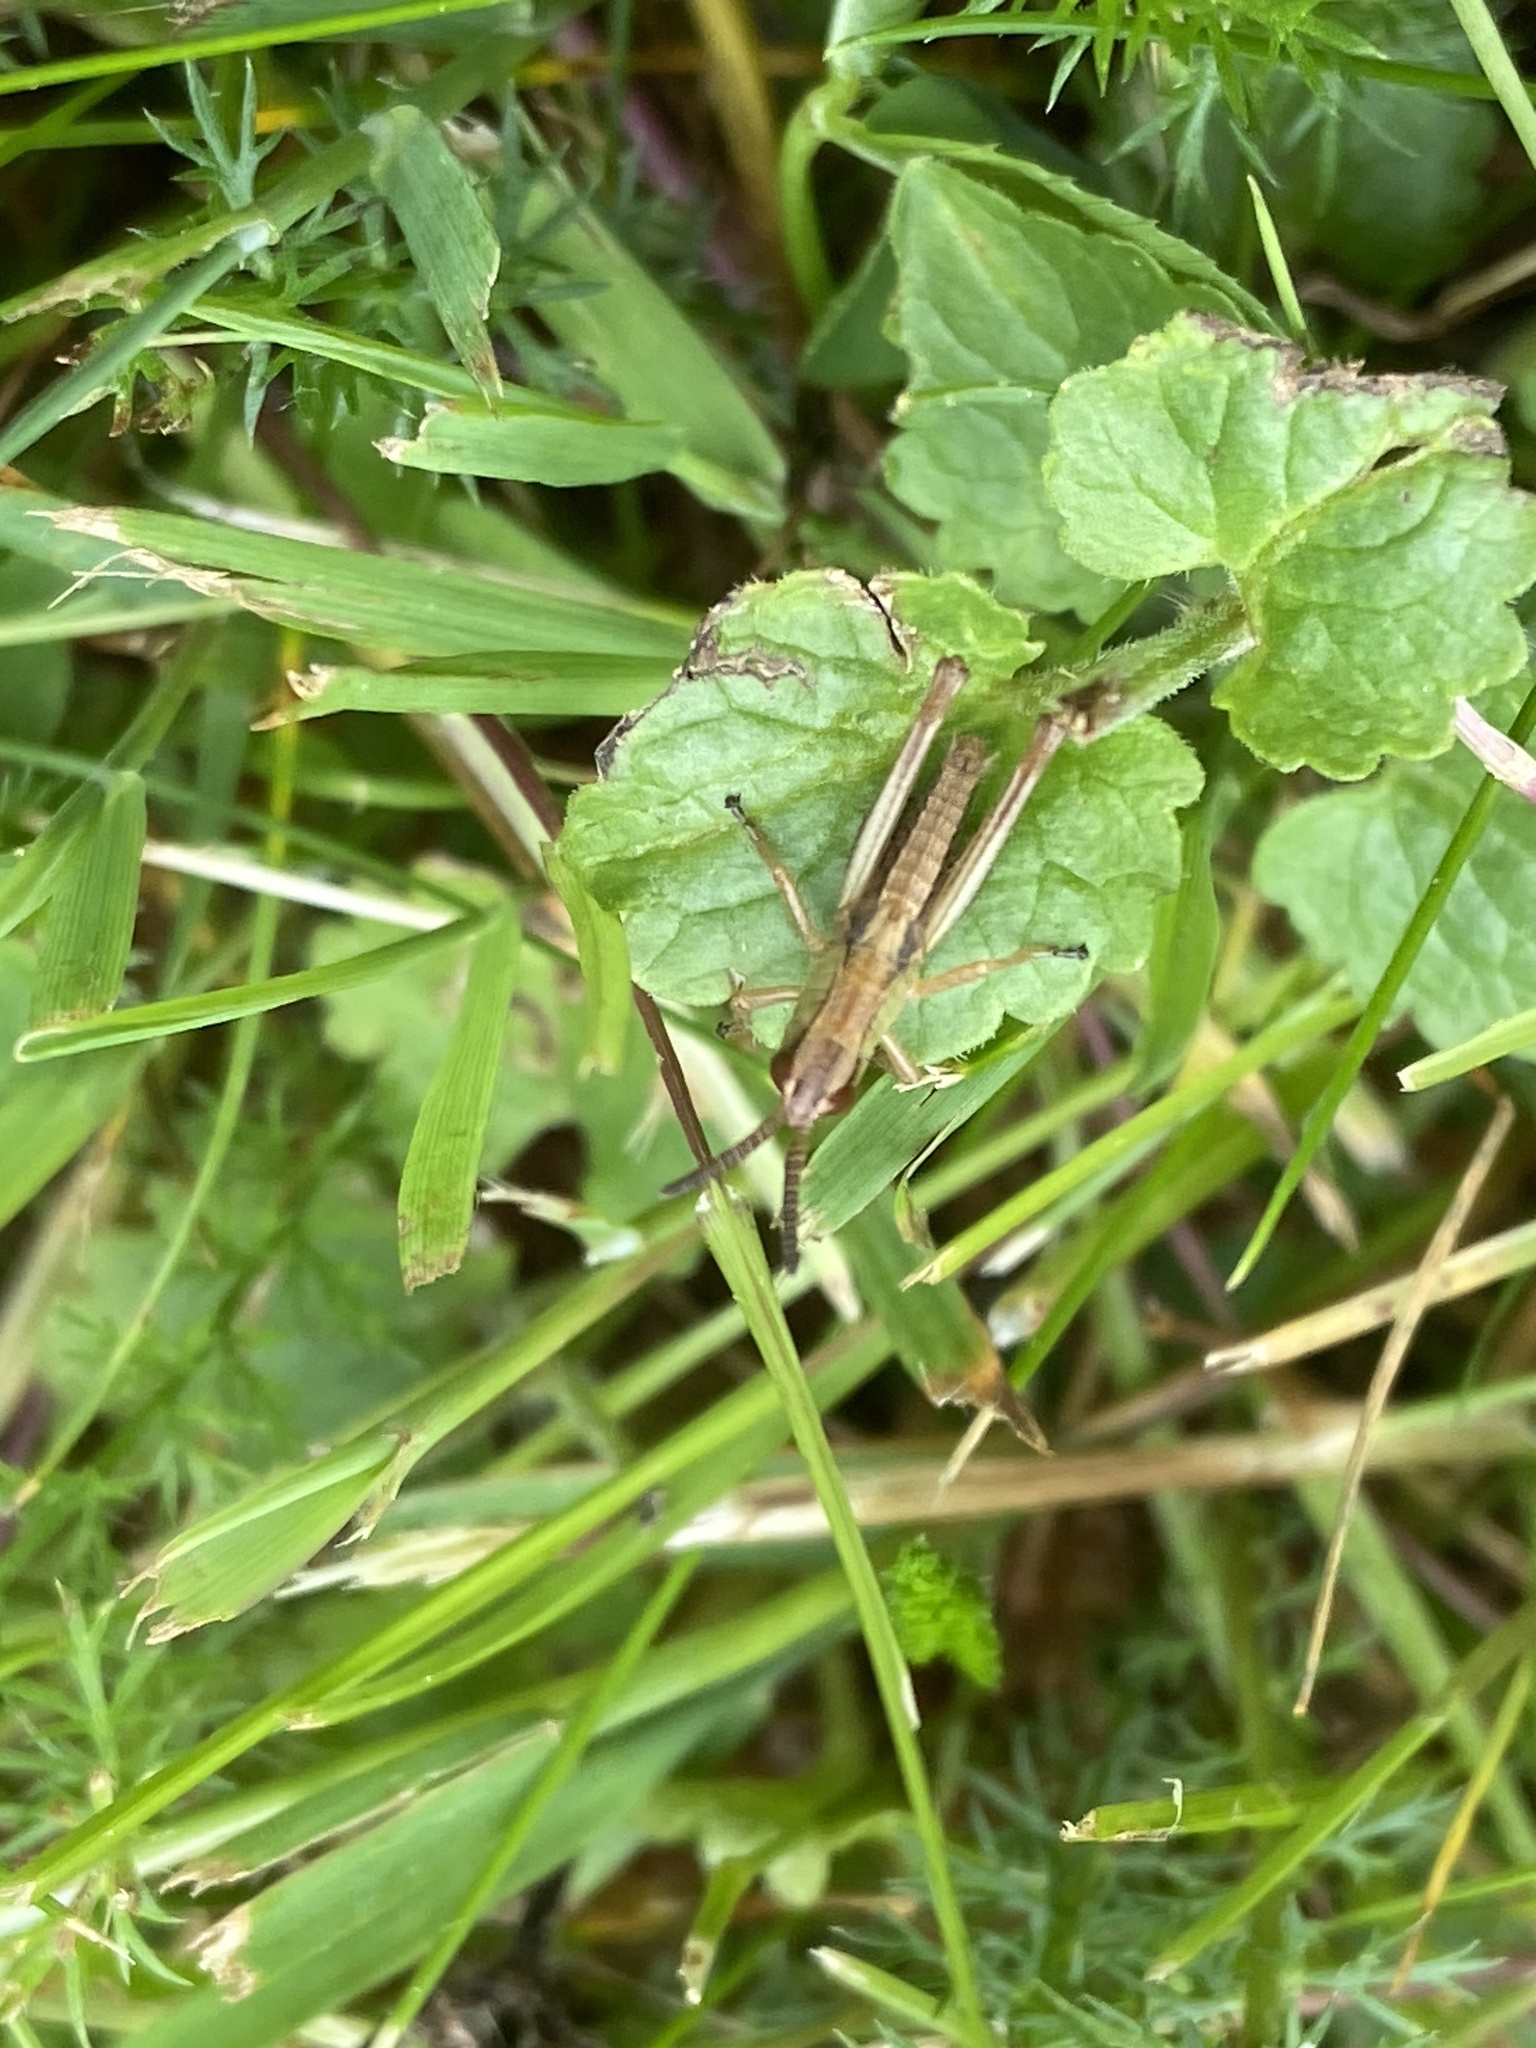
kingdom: Animalia
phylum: Arthropoda
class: Insecta
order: Orthoptera
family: Acrididae
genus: Pseudochorthippus
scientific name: Pseudochorthippus parallelus
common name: Meadow grasshopper
